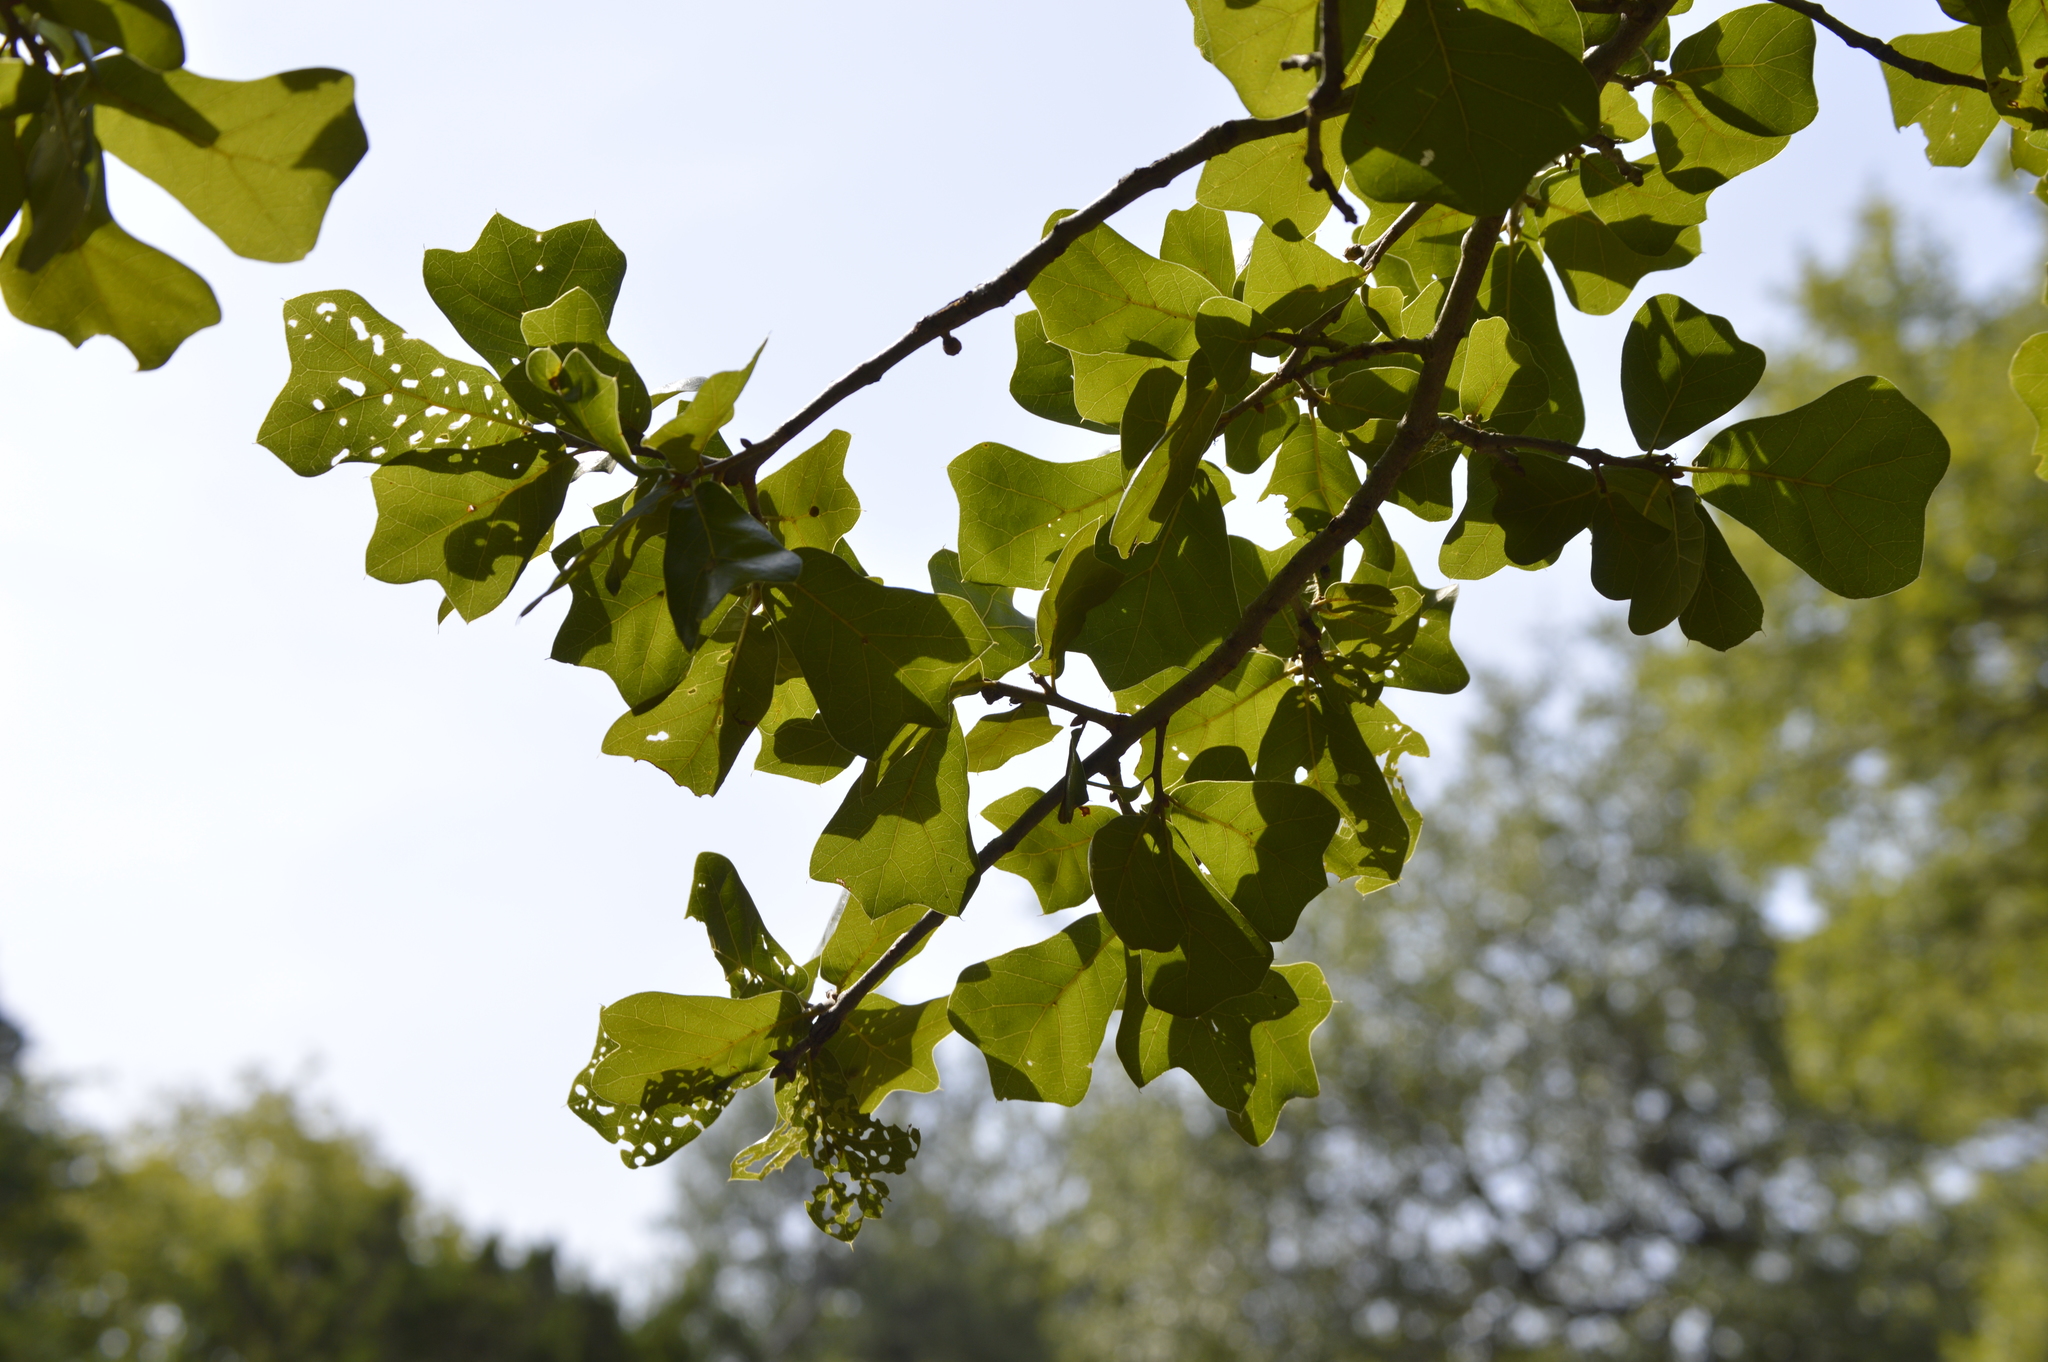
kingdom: Plantae
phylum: Tracheophyta
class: Magnoliopsida
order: Fagales
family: Fagaceae
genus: Quercus
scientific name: Quercus marilandica
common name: Blackjack oak
